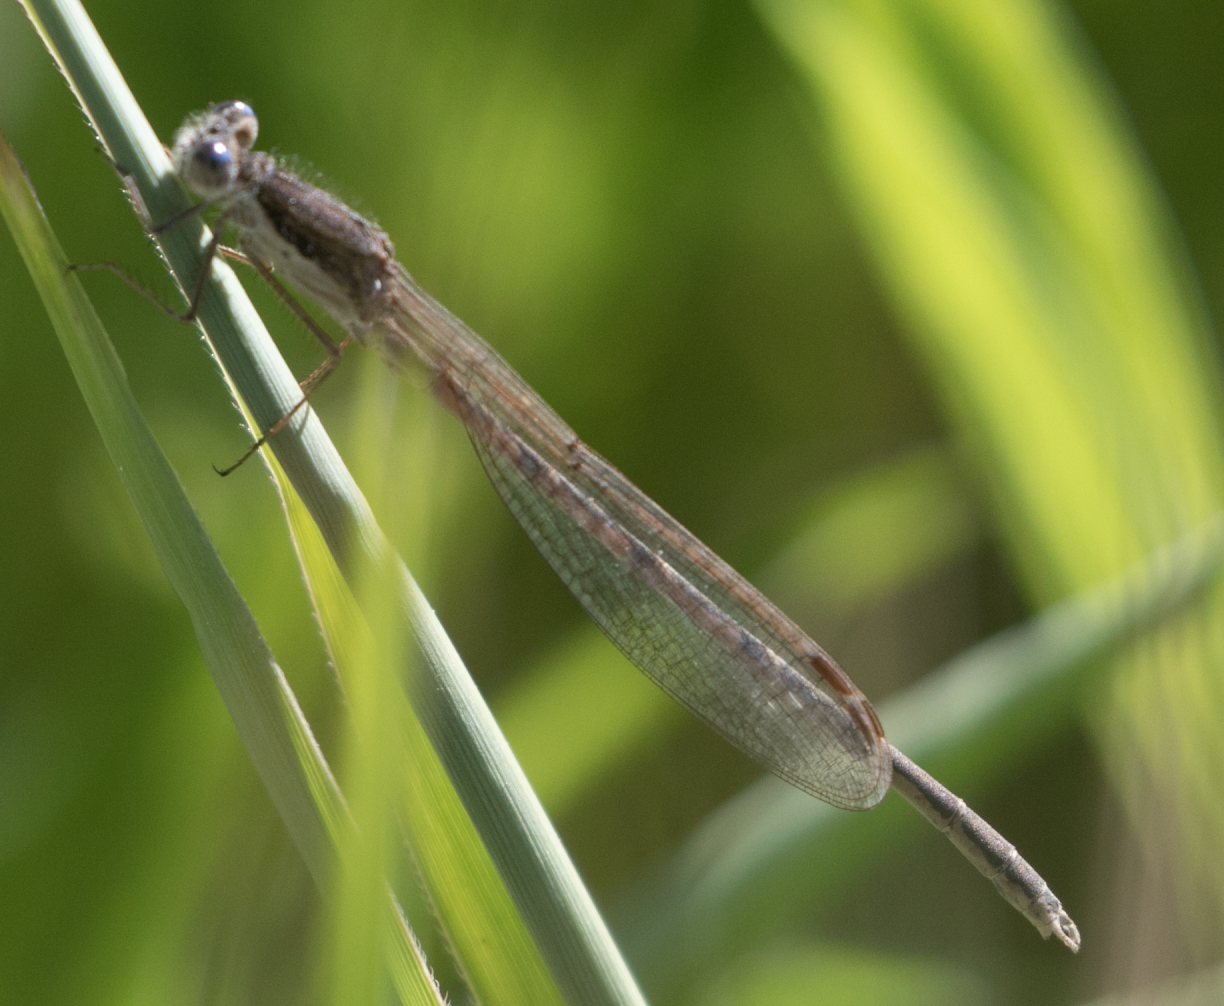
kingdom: Animalia
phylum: Arthropoda
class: Insecta
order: Odonata
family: Lestidae
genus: Sympecma
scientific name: Sympecma fusca
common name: Common winter damsel
